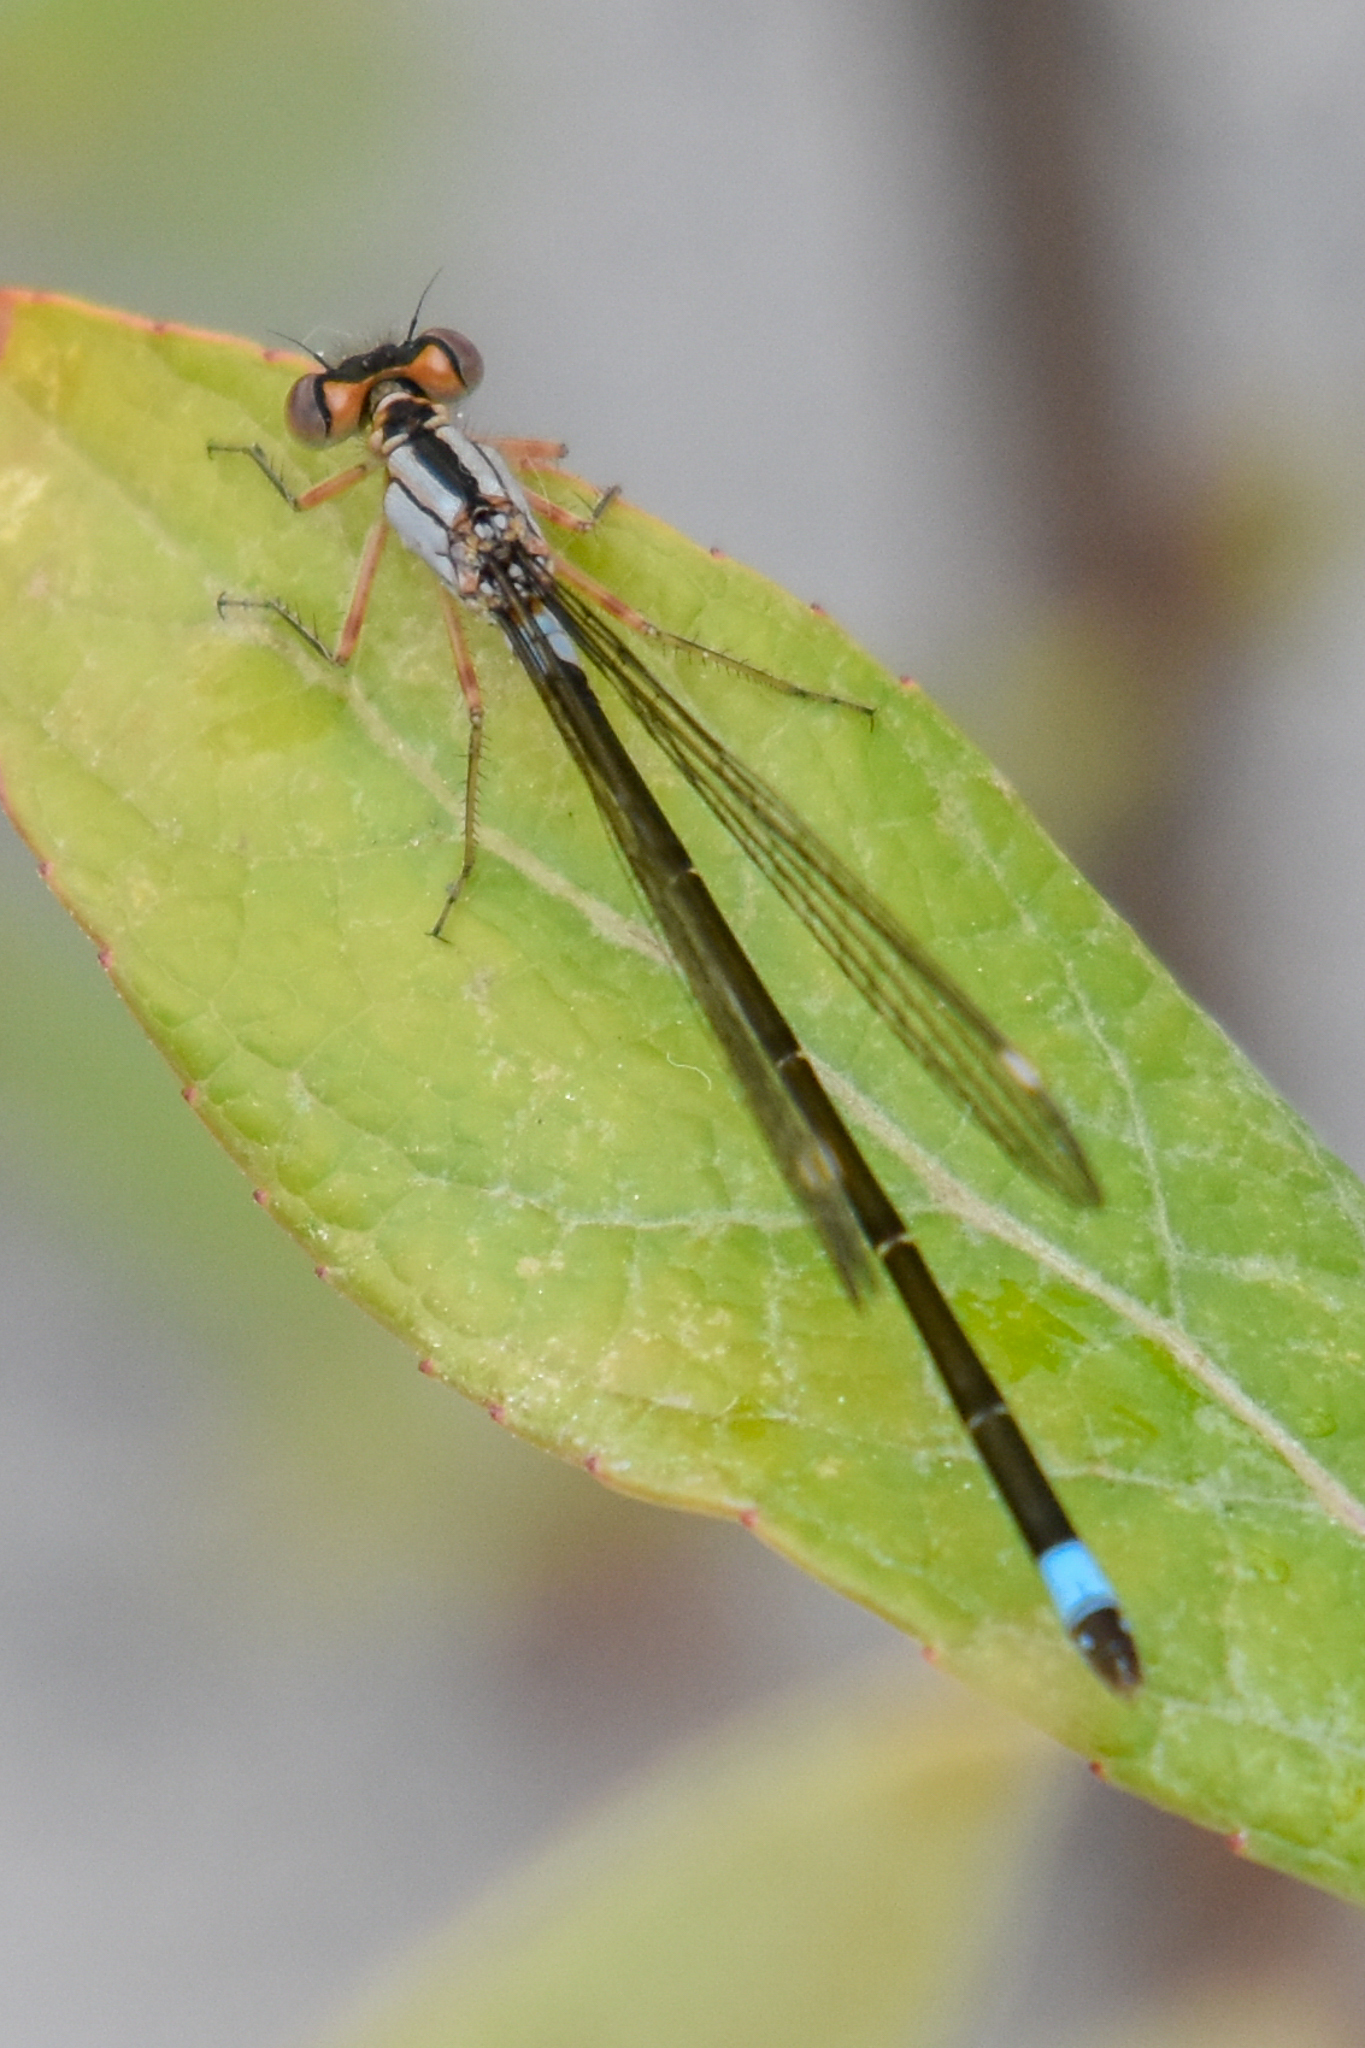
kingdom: Animalia
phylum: Arthropoda
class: Insecta
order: Odonata
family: Coenagrionidae
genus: Ischnura
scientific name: Ischnura cervula
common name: Pacific forktail
